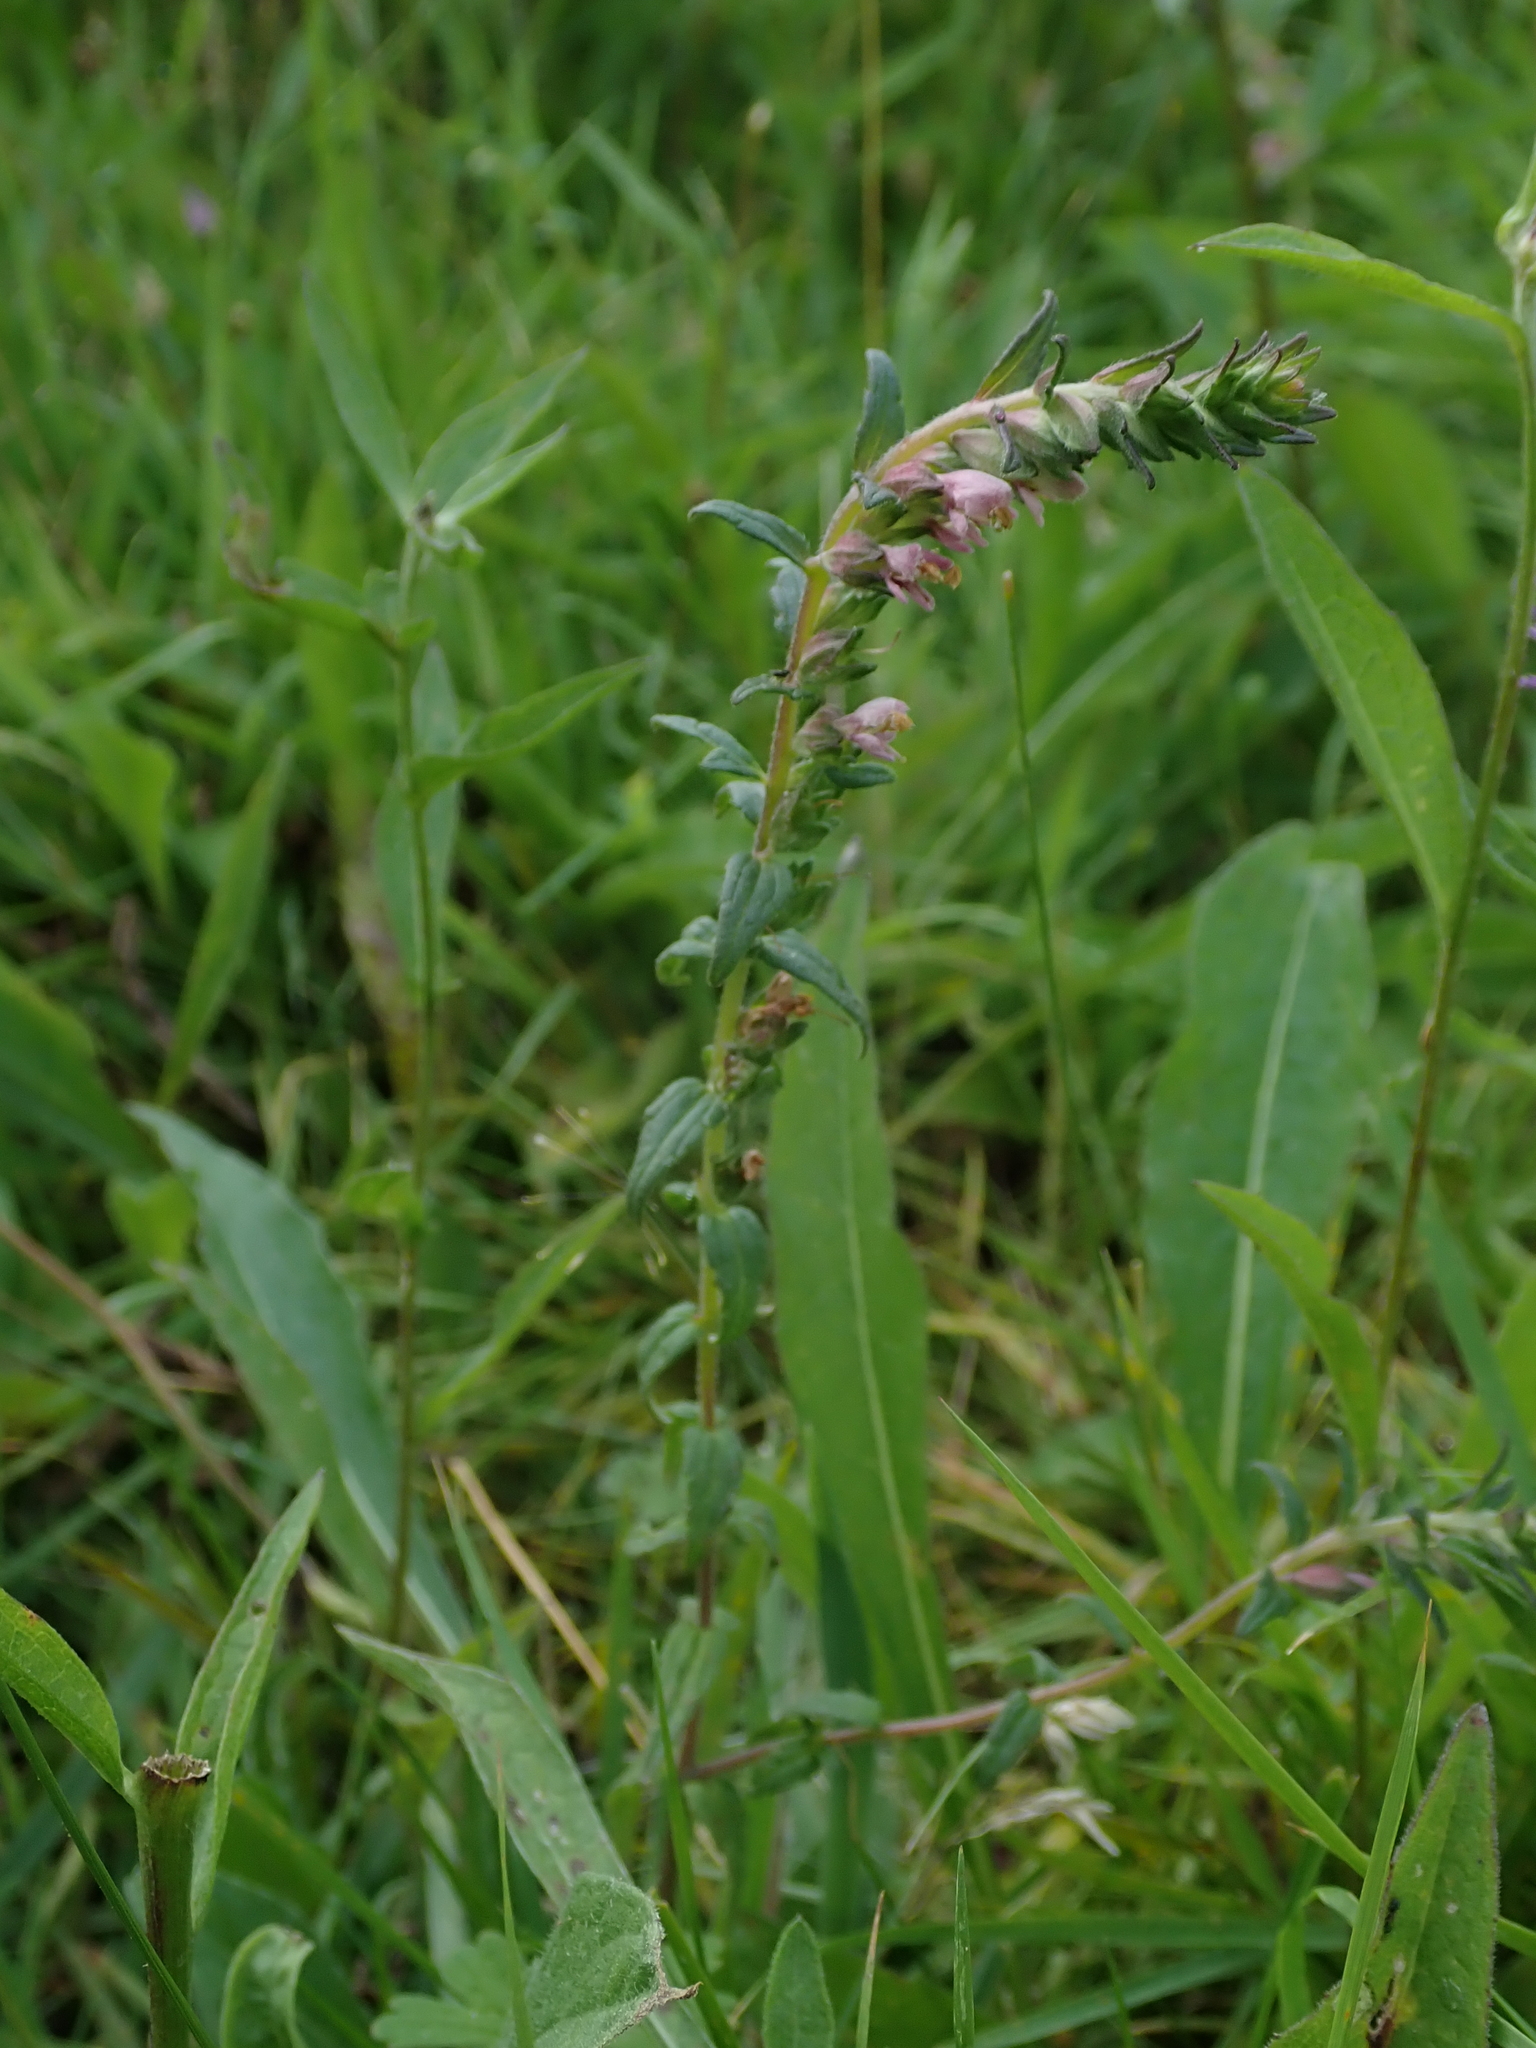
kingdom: Plantae
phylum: Tracheophyta
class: Magnoliopsida
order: Lamiales
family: Orobanchaceae
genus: Odontites
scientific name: Odontites vulgaris
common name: Broomrape
